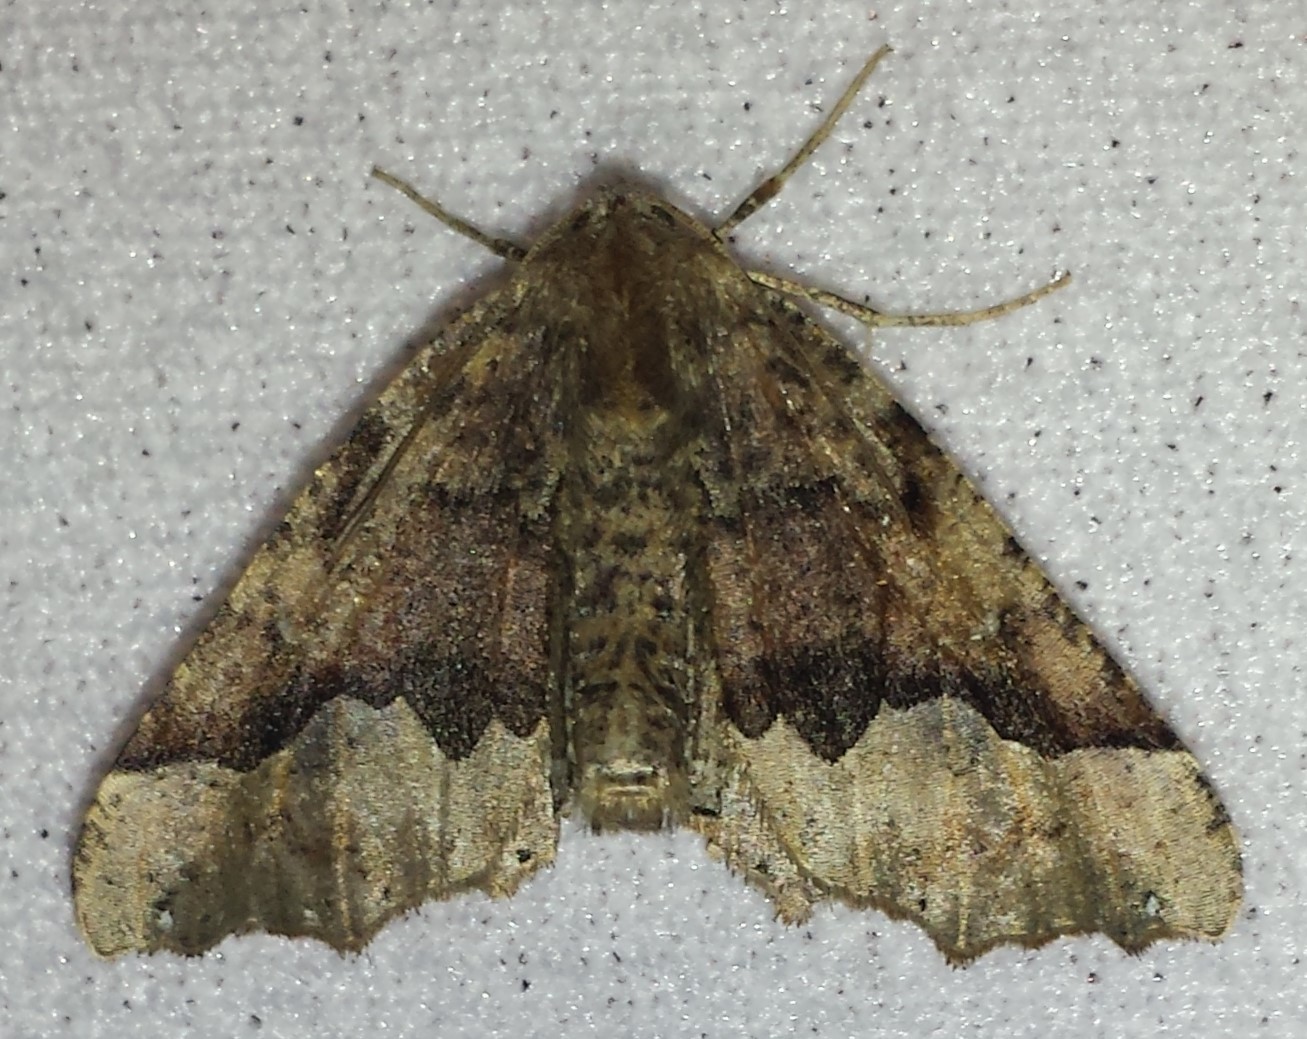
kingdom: Animalia
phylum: Arthropoda
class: Insecta
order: Lepidoptera
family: Geometridae
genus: Pero
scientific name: Pero morrisonaria
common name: Morrison's pero
